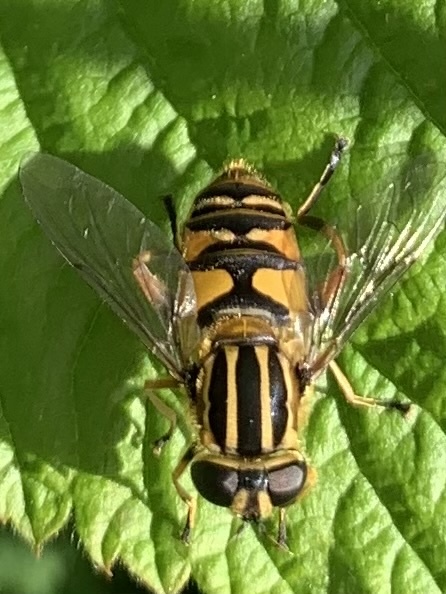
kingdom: Animalia
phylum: Arthropoda
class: Insecta
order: Diptera
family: Syrphidae
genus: Helophilus
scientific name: Helophilus pendulus
